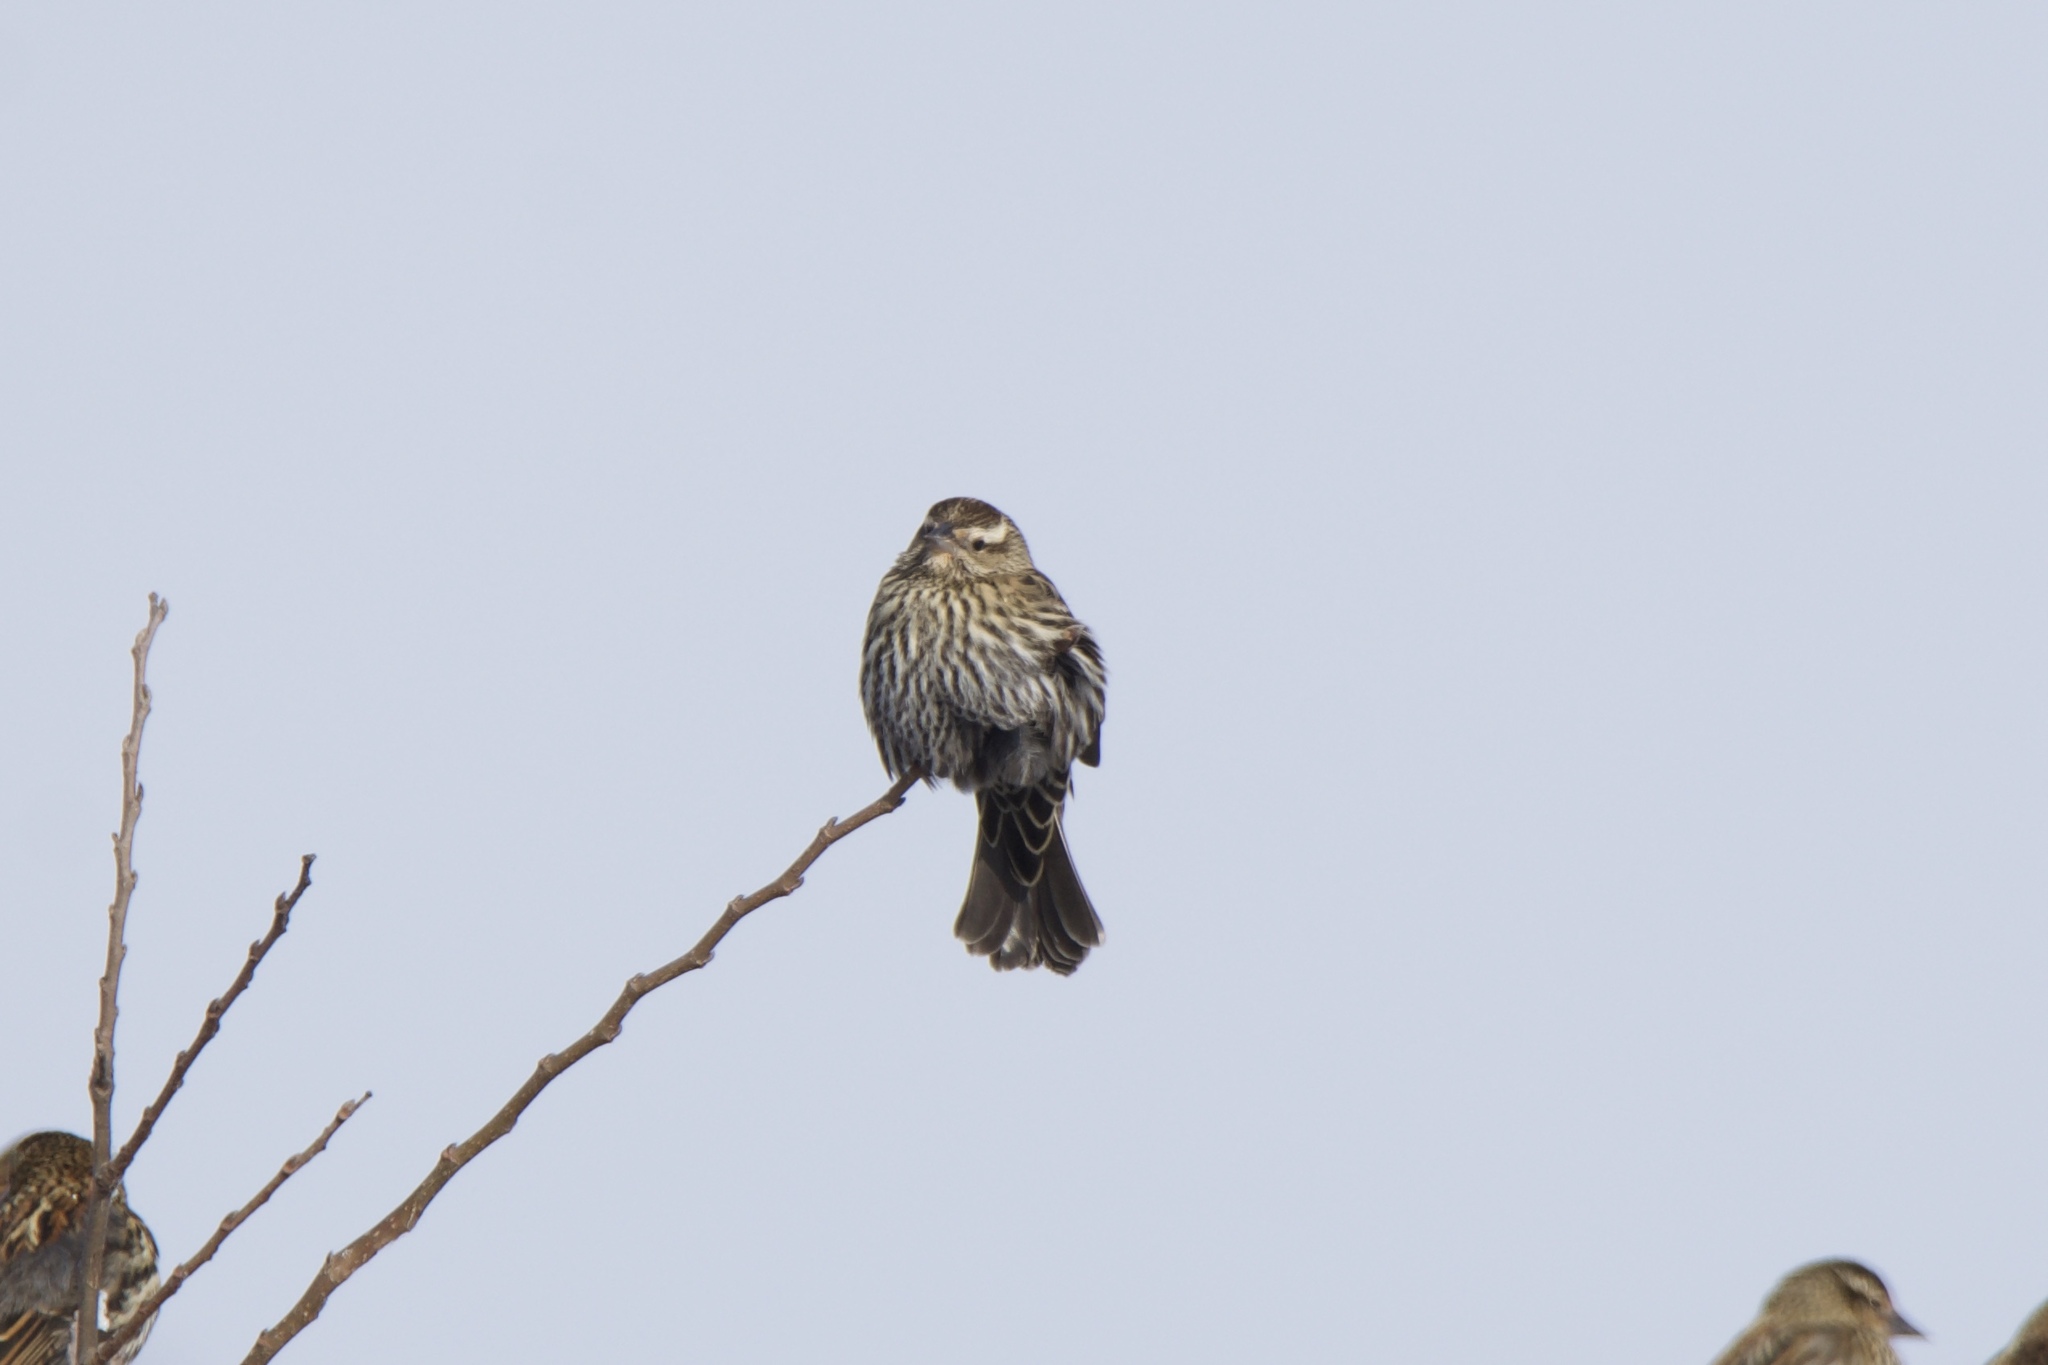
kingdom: Animalia
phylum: Chordata
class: Aves
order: Passeriformes
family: Icteridae
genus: Agelaius
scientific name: Agelaius phoeniceus
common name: Red-winged blackbird
